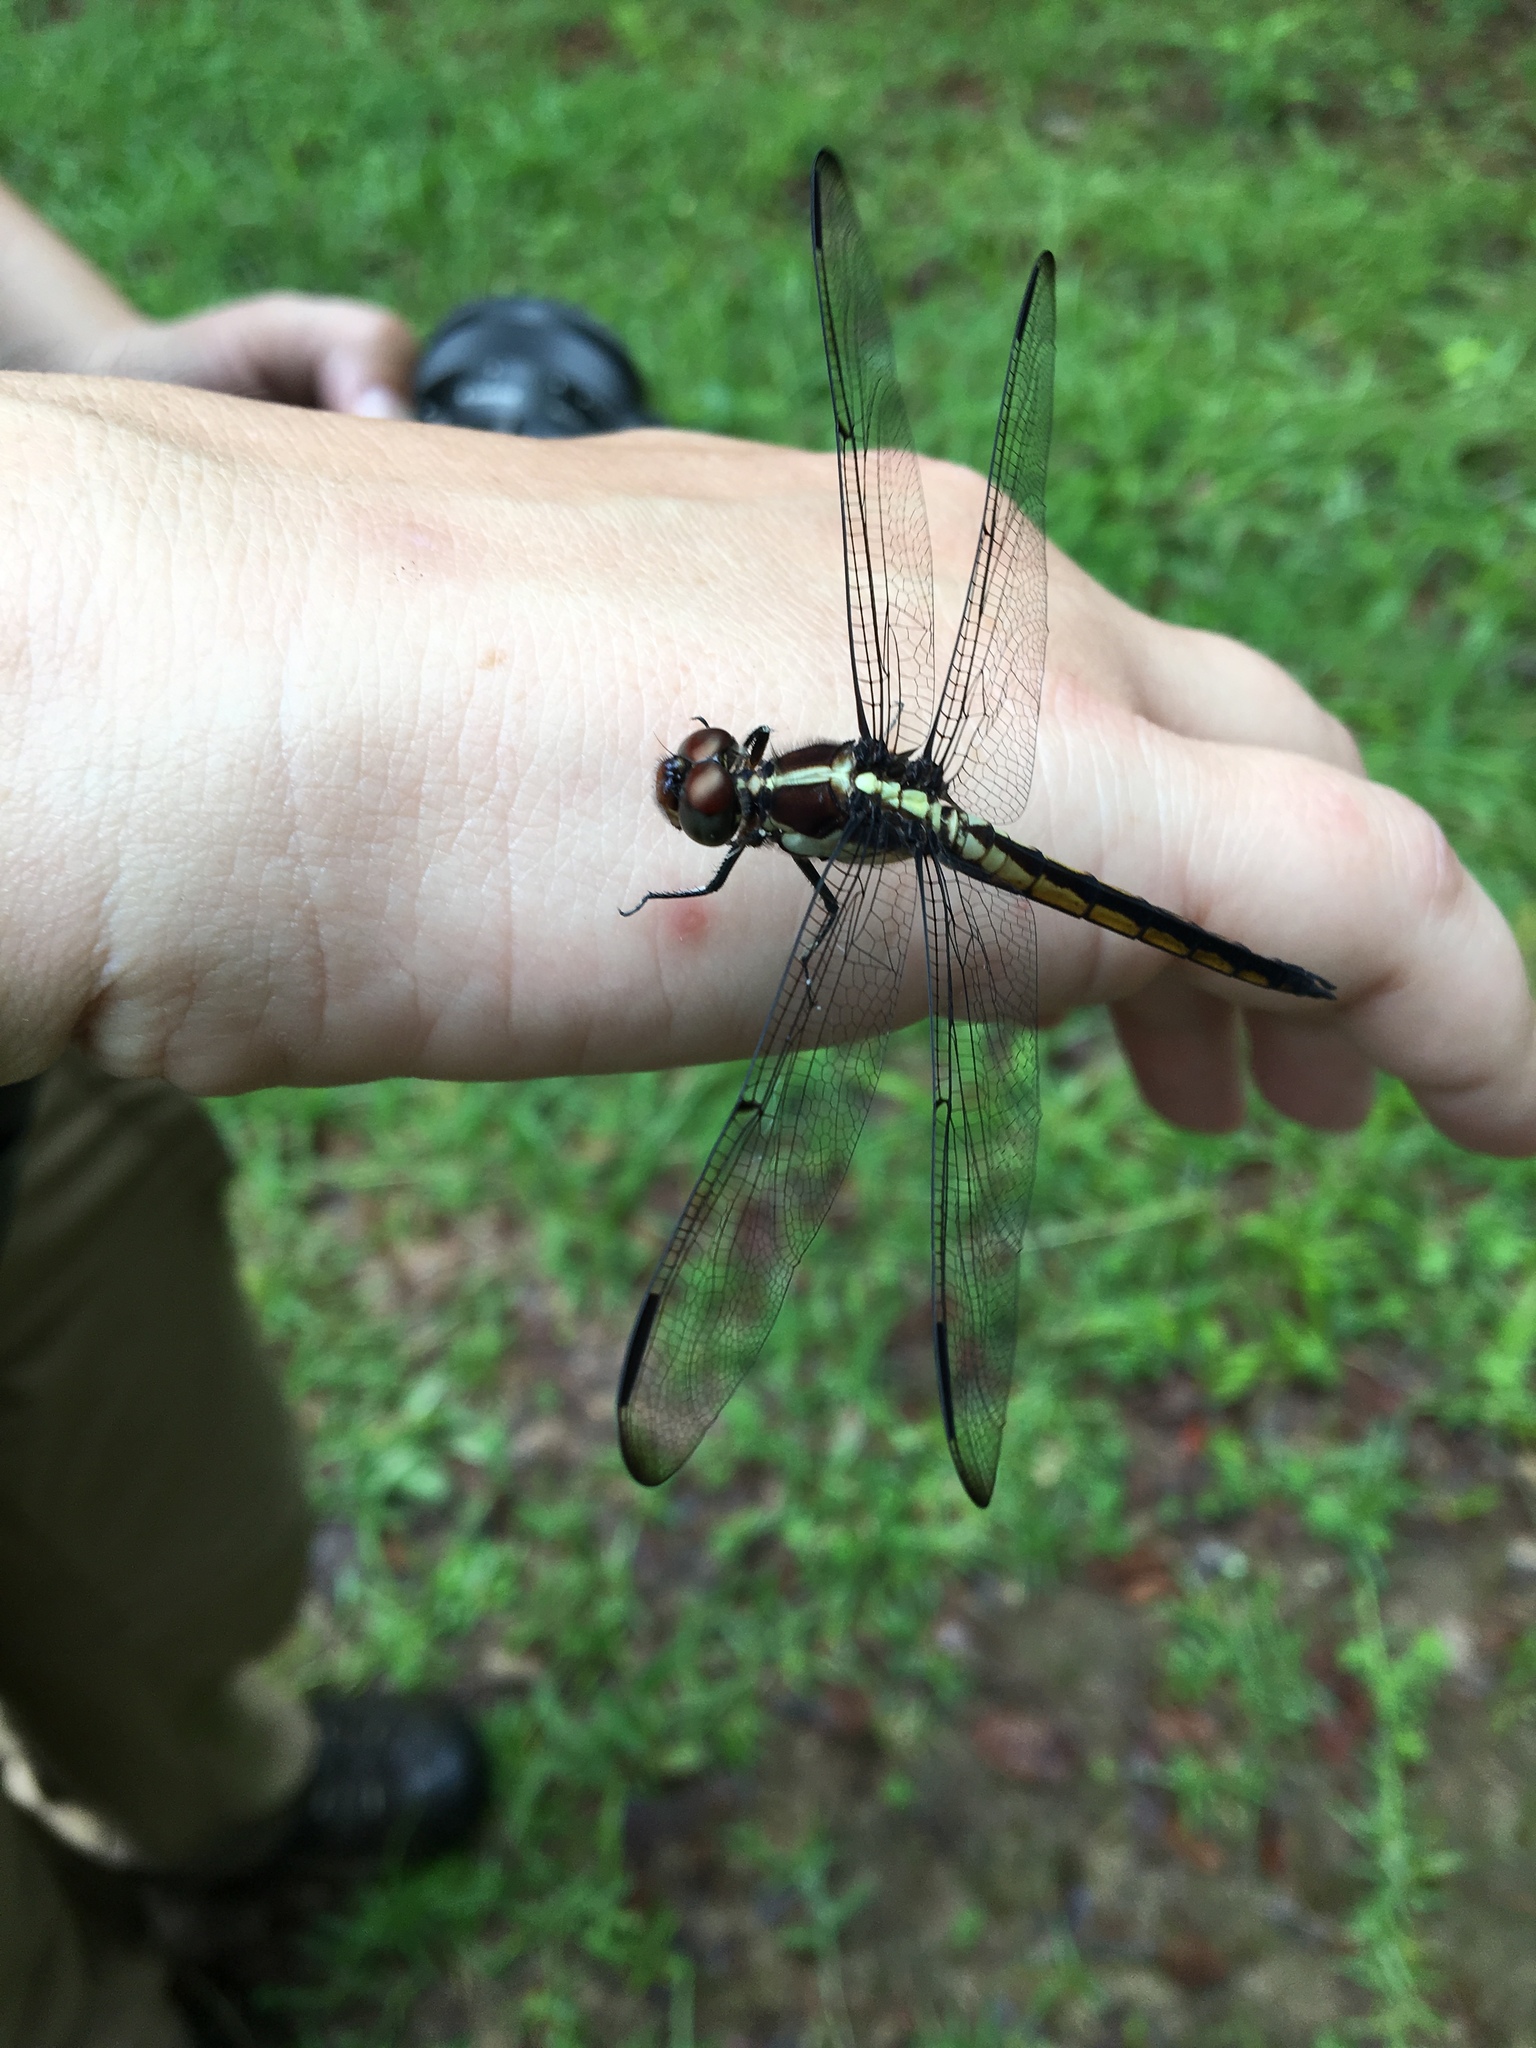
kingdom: Animalia
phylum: Arthropoda
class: Insecta
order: Odonata
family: Libellulidae
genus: Libellula
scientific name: Libellula flavida
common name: Yellow-sided skimmer
